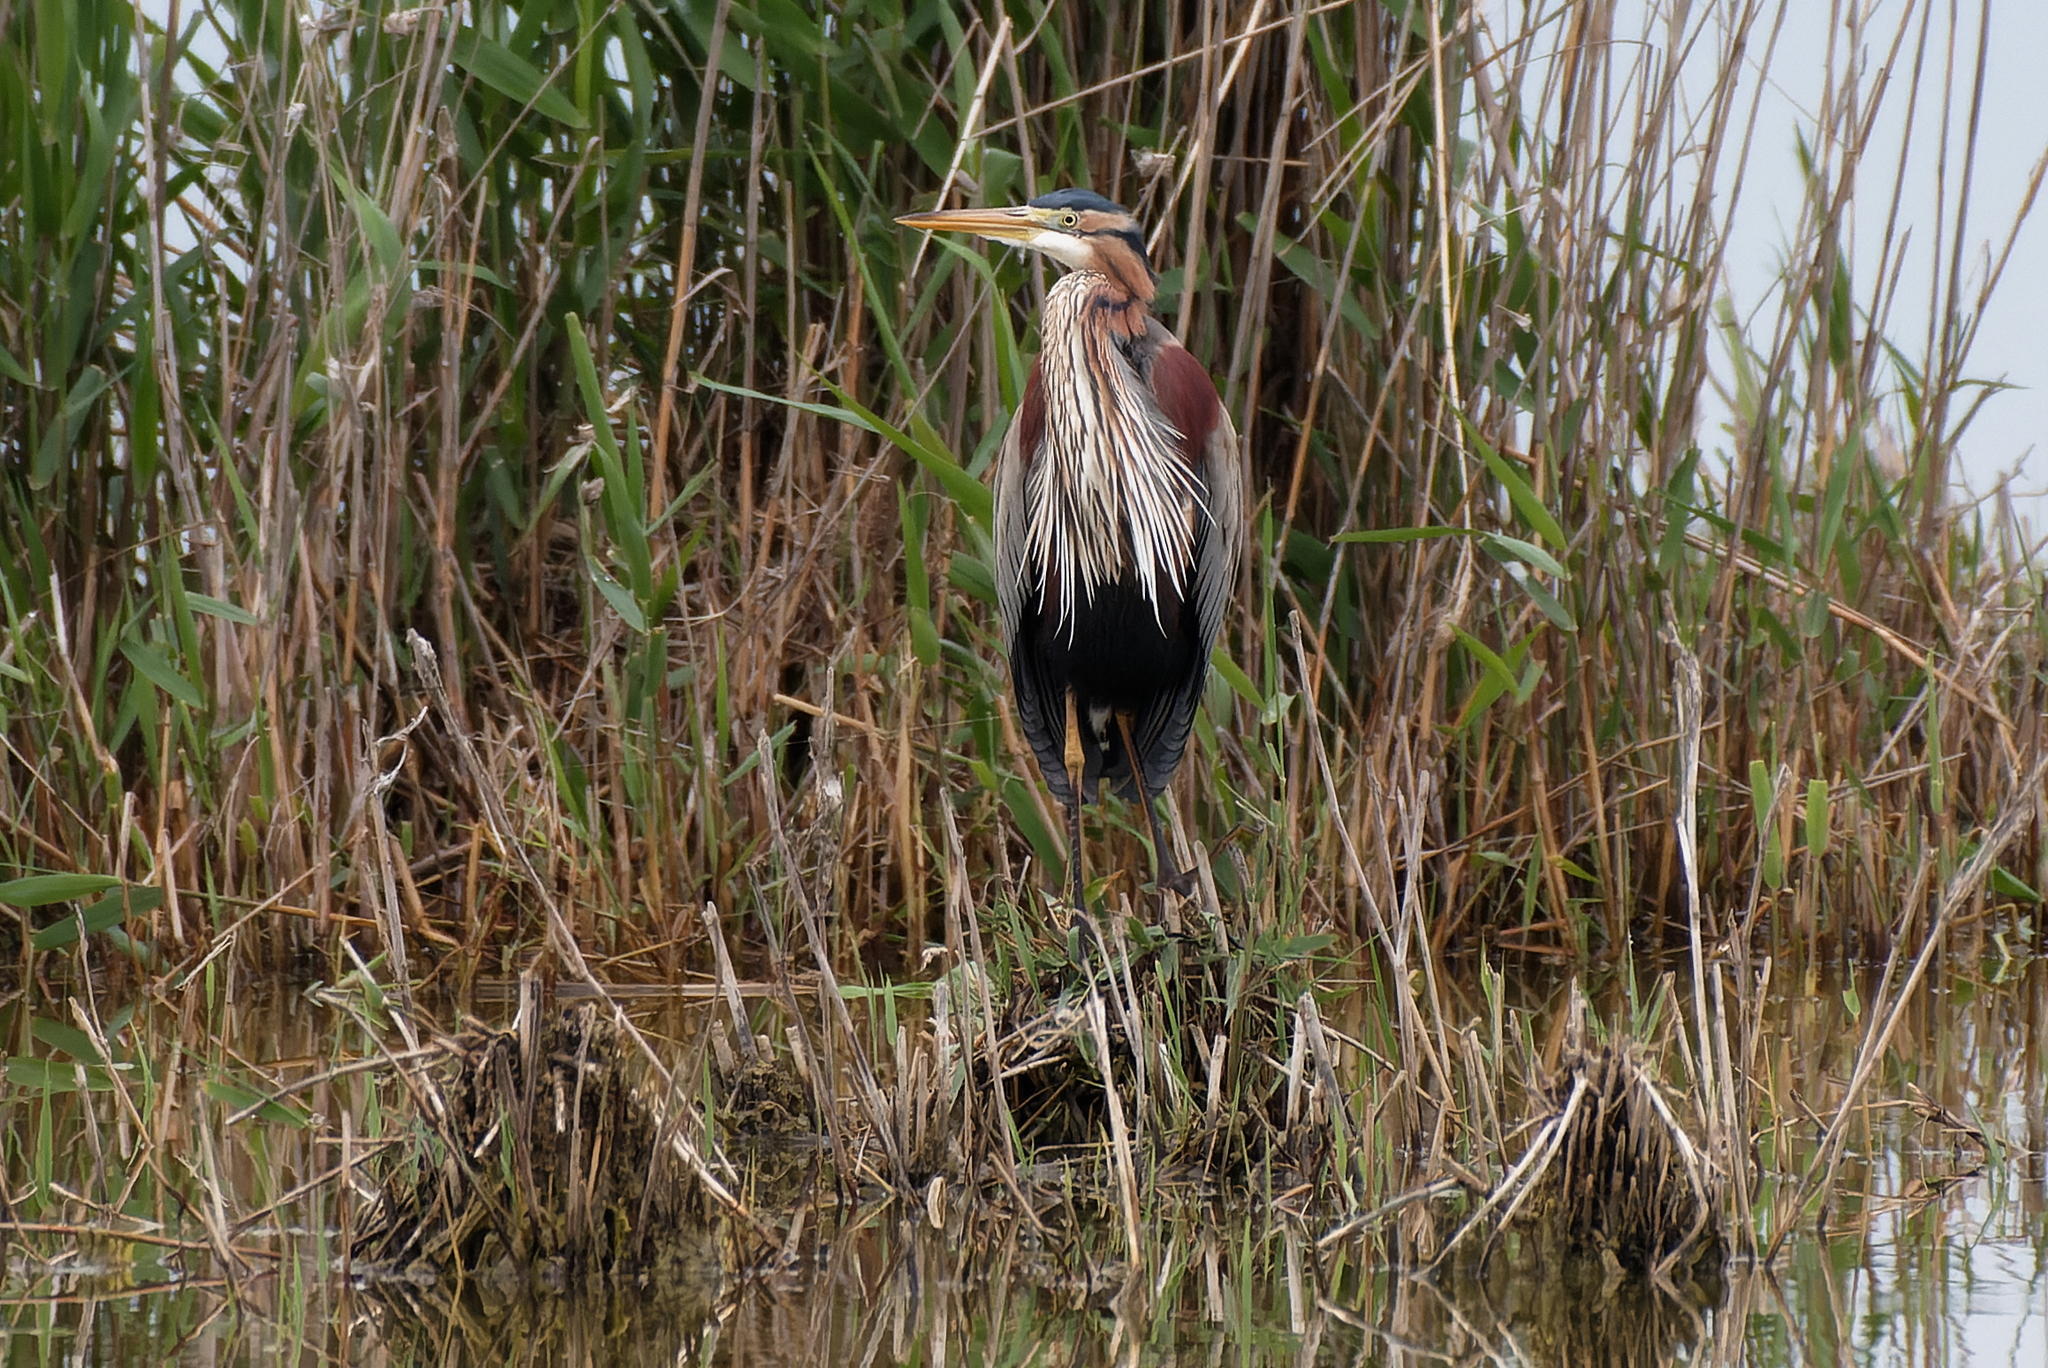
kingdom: Animalia
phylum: Chordata
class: Aves
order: Pelecaniformes
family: Ardeidae
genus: Ardea
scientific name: Ardea purpurea
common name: Purple heron
